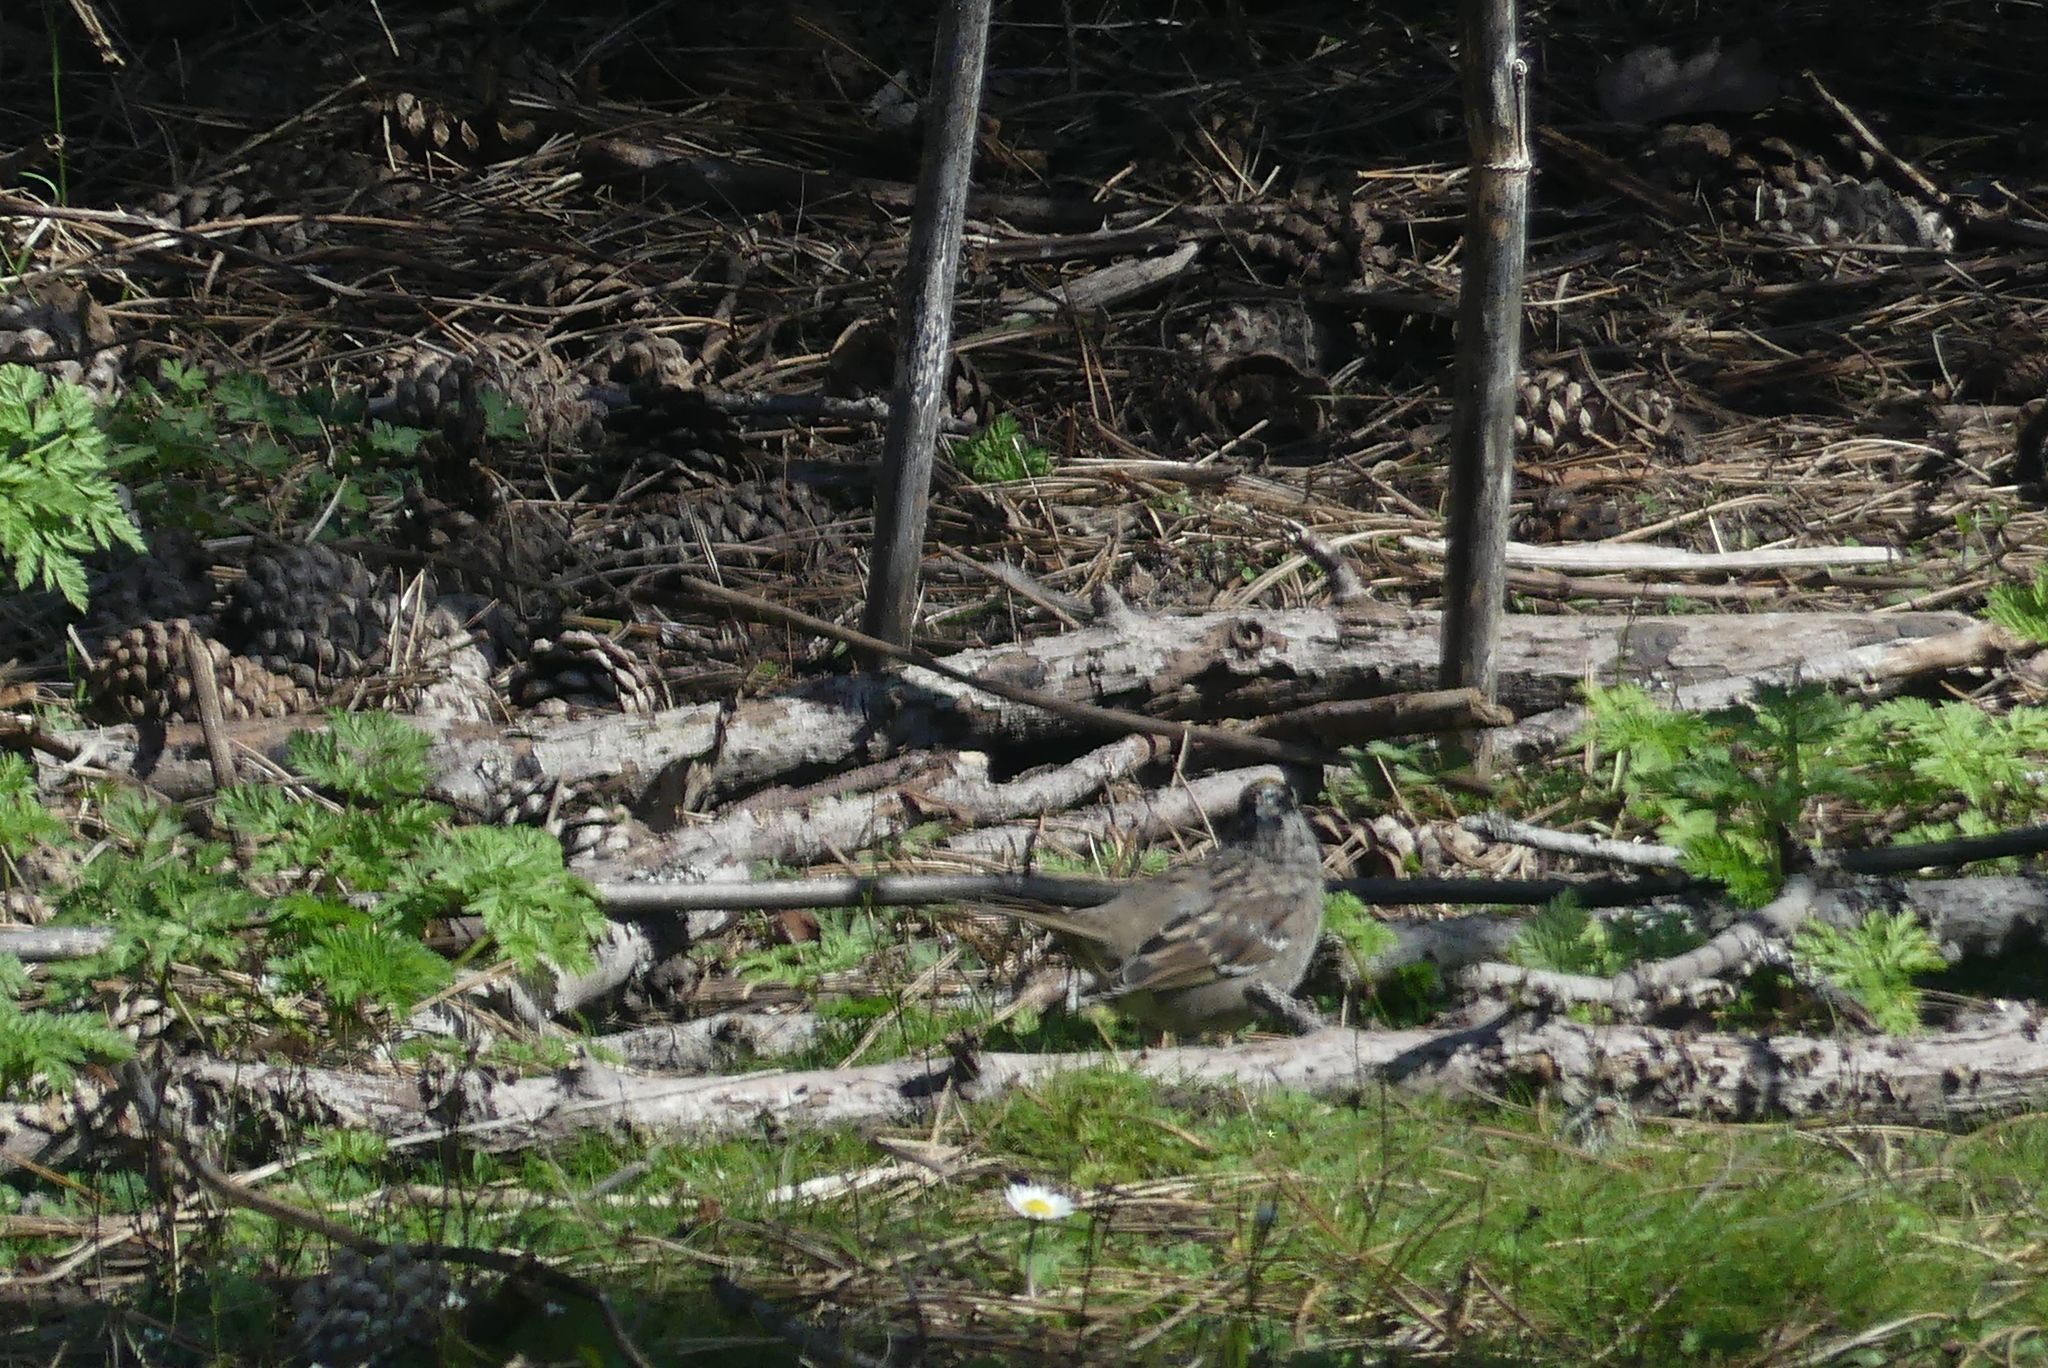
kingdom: Animalia
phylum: Chordata
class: Aves
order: Passeriformes
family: Passerellidae
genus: Zonotrichia
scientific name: Zonotrichia atricapilla
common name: Golden-crowned sparrow
